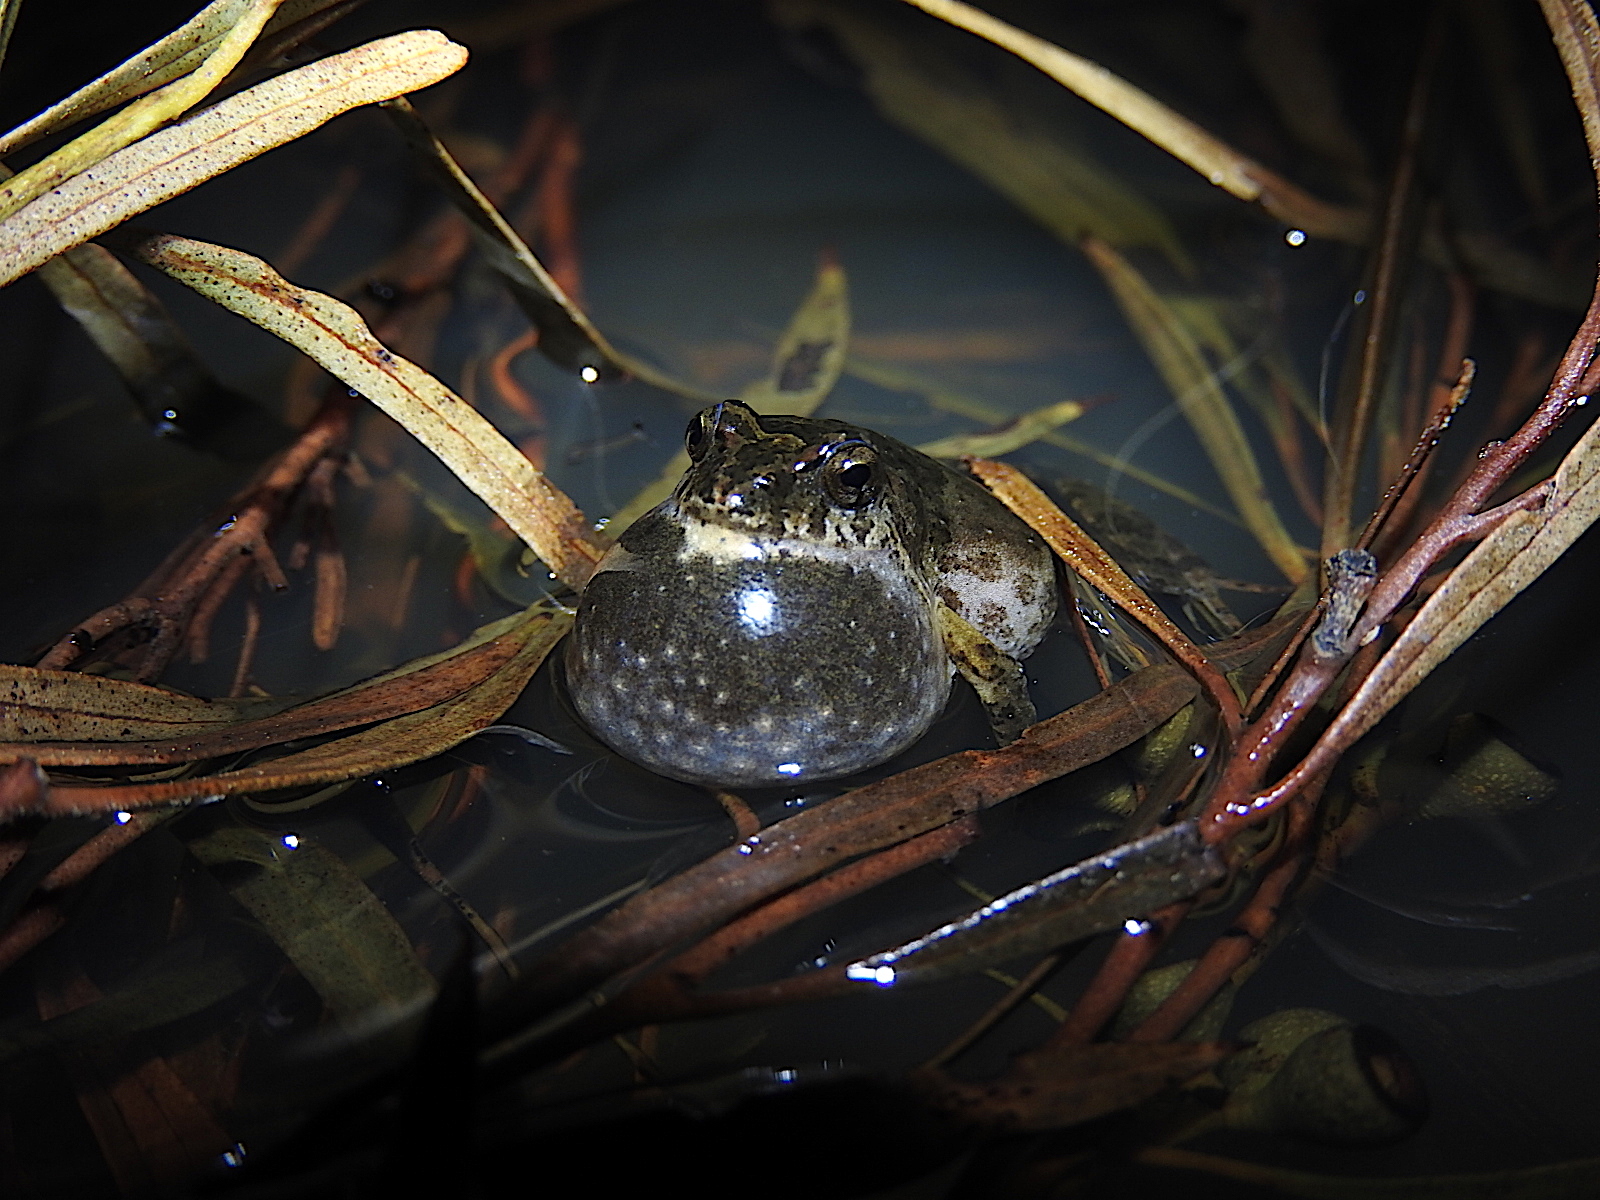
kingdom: Animalia
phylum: Chordata
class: Amphibia
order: Anura
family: Myobatrachidae
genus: Crinia
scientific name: Crinia signifera
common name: Brown froglet
